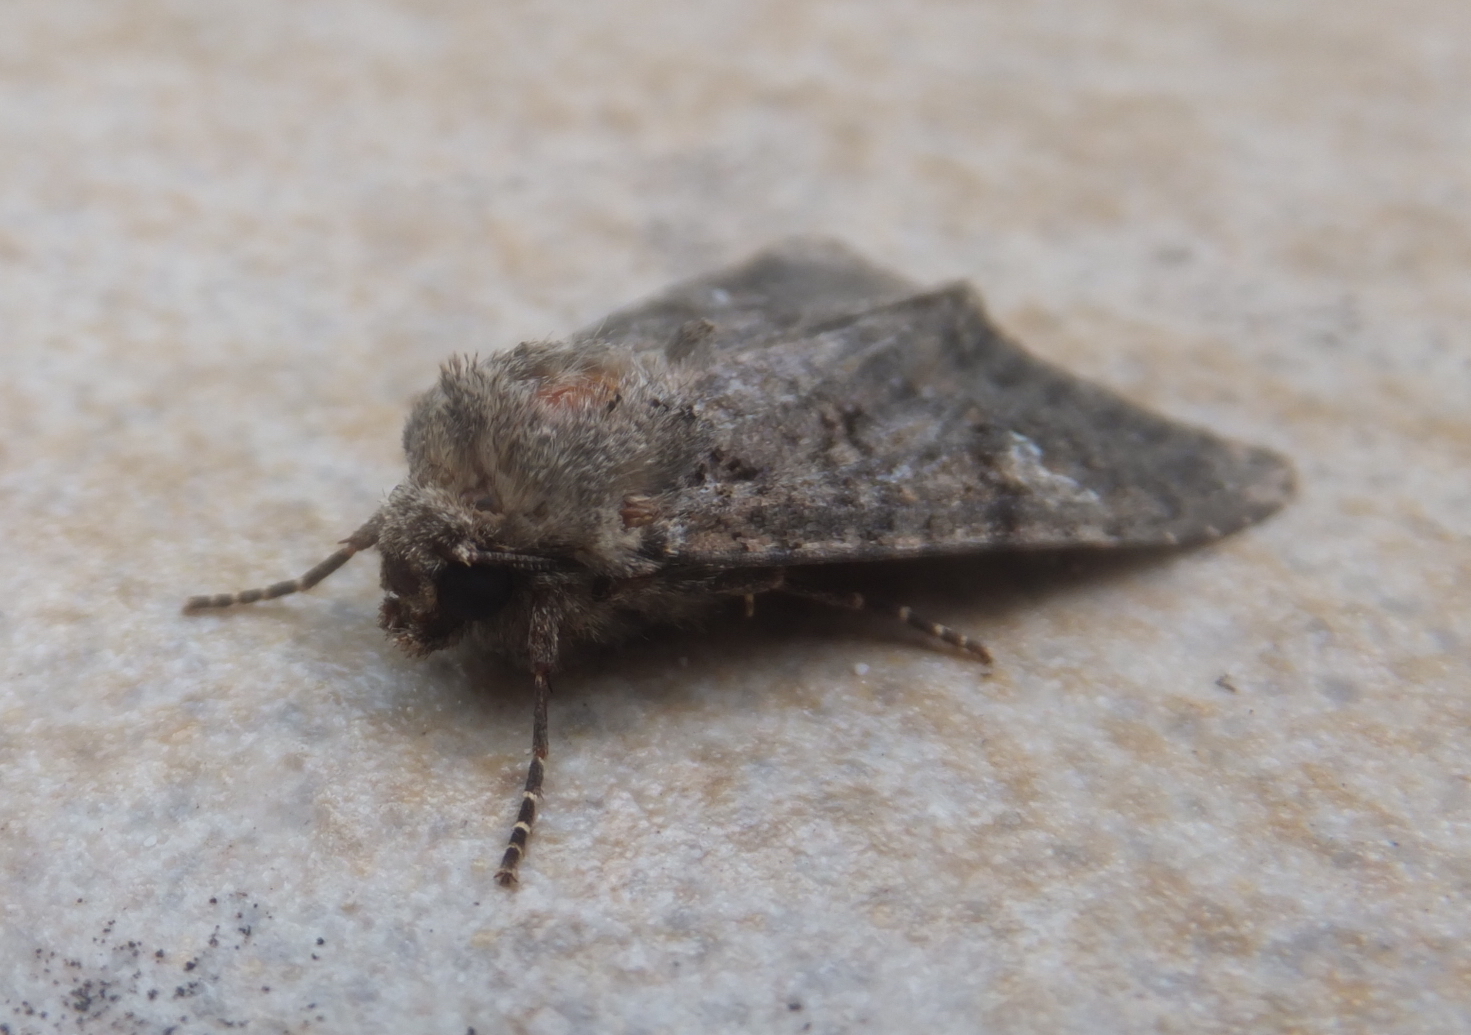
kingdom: Animalia
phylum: Arthropoda
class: Insecta
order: Lepidoptera
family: Noctuidae
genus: Mamestra
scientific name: Mamestra brassicae
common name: Cabbage moth
